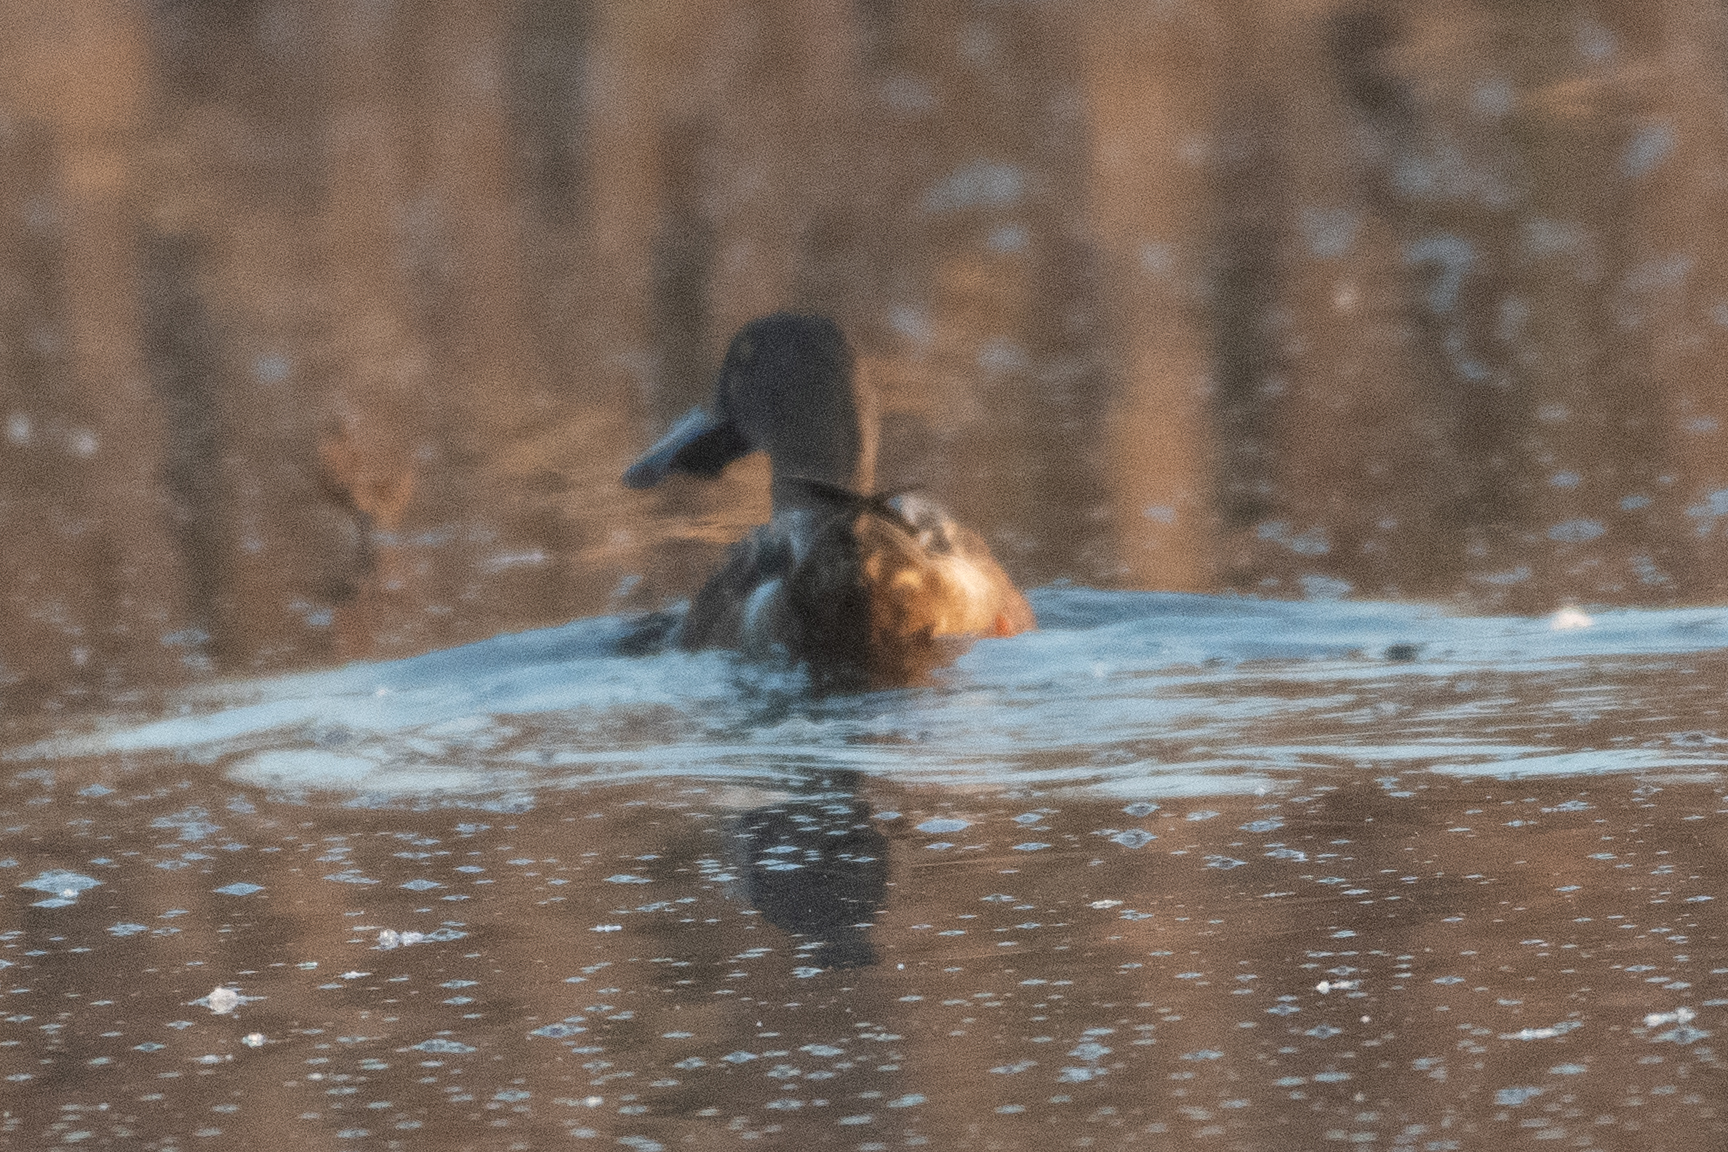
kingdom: Animalia
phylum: Chordata
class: Aves
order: Anseriformes
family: Anatidae
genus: Spatula
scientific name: Spatula clypeata
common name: Northern shoveler
